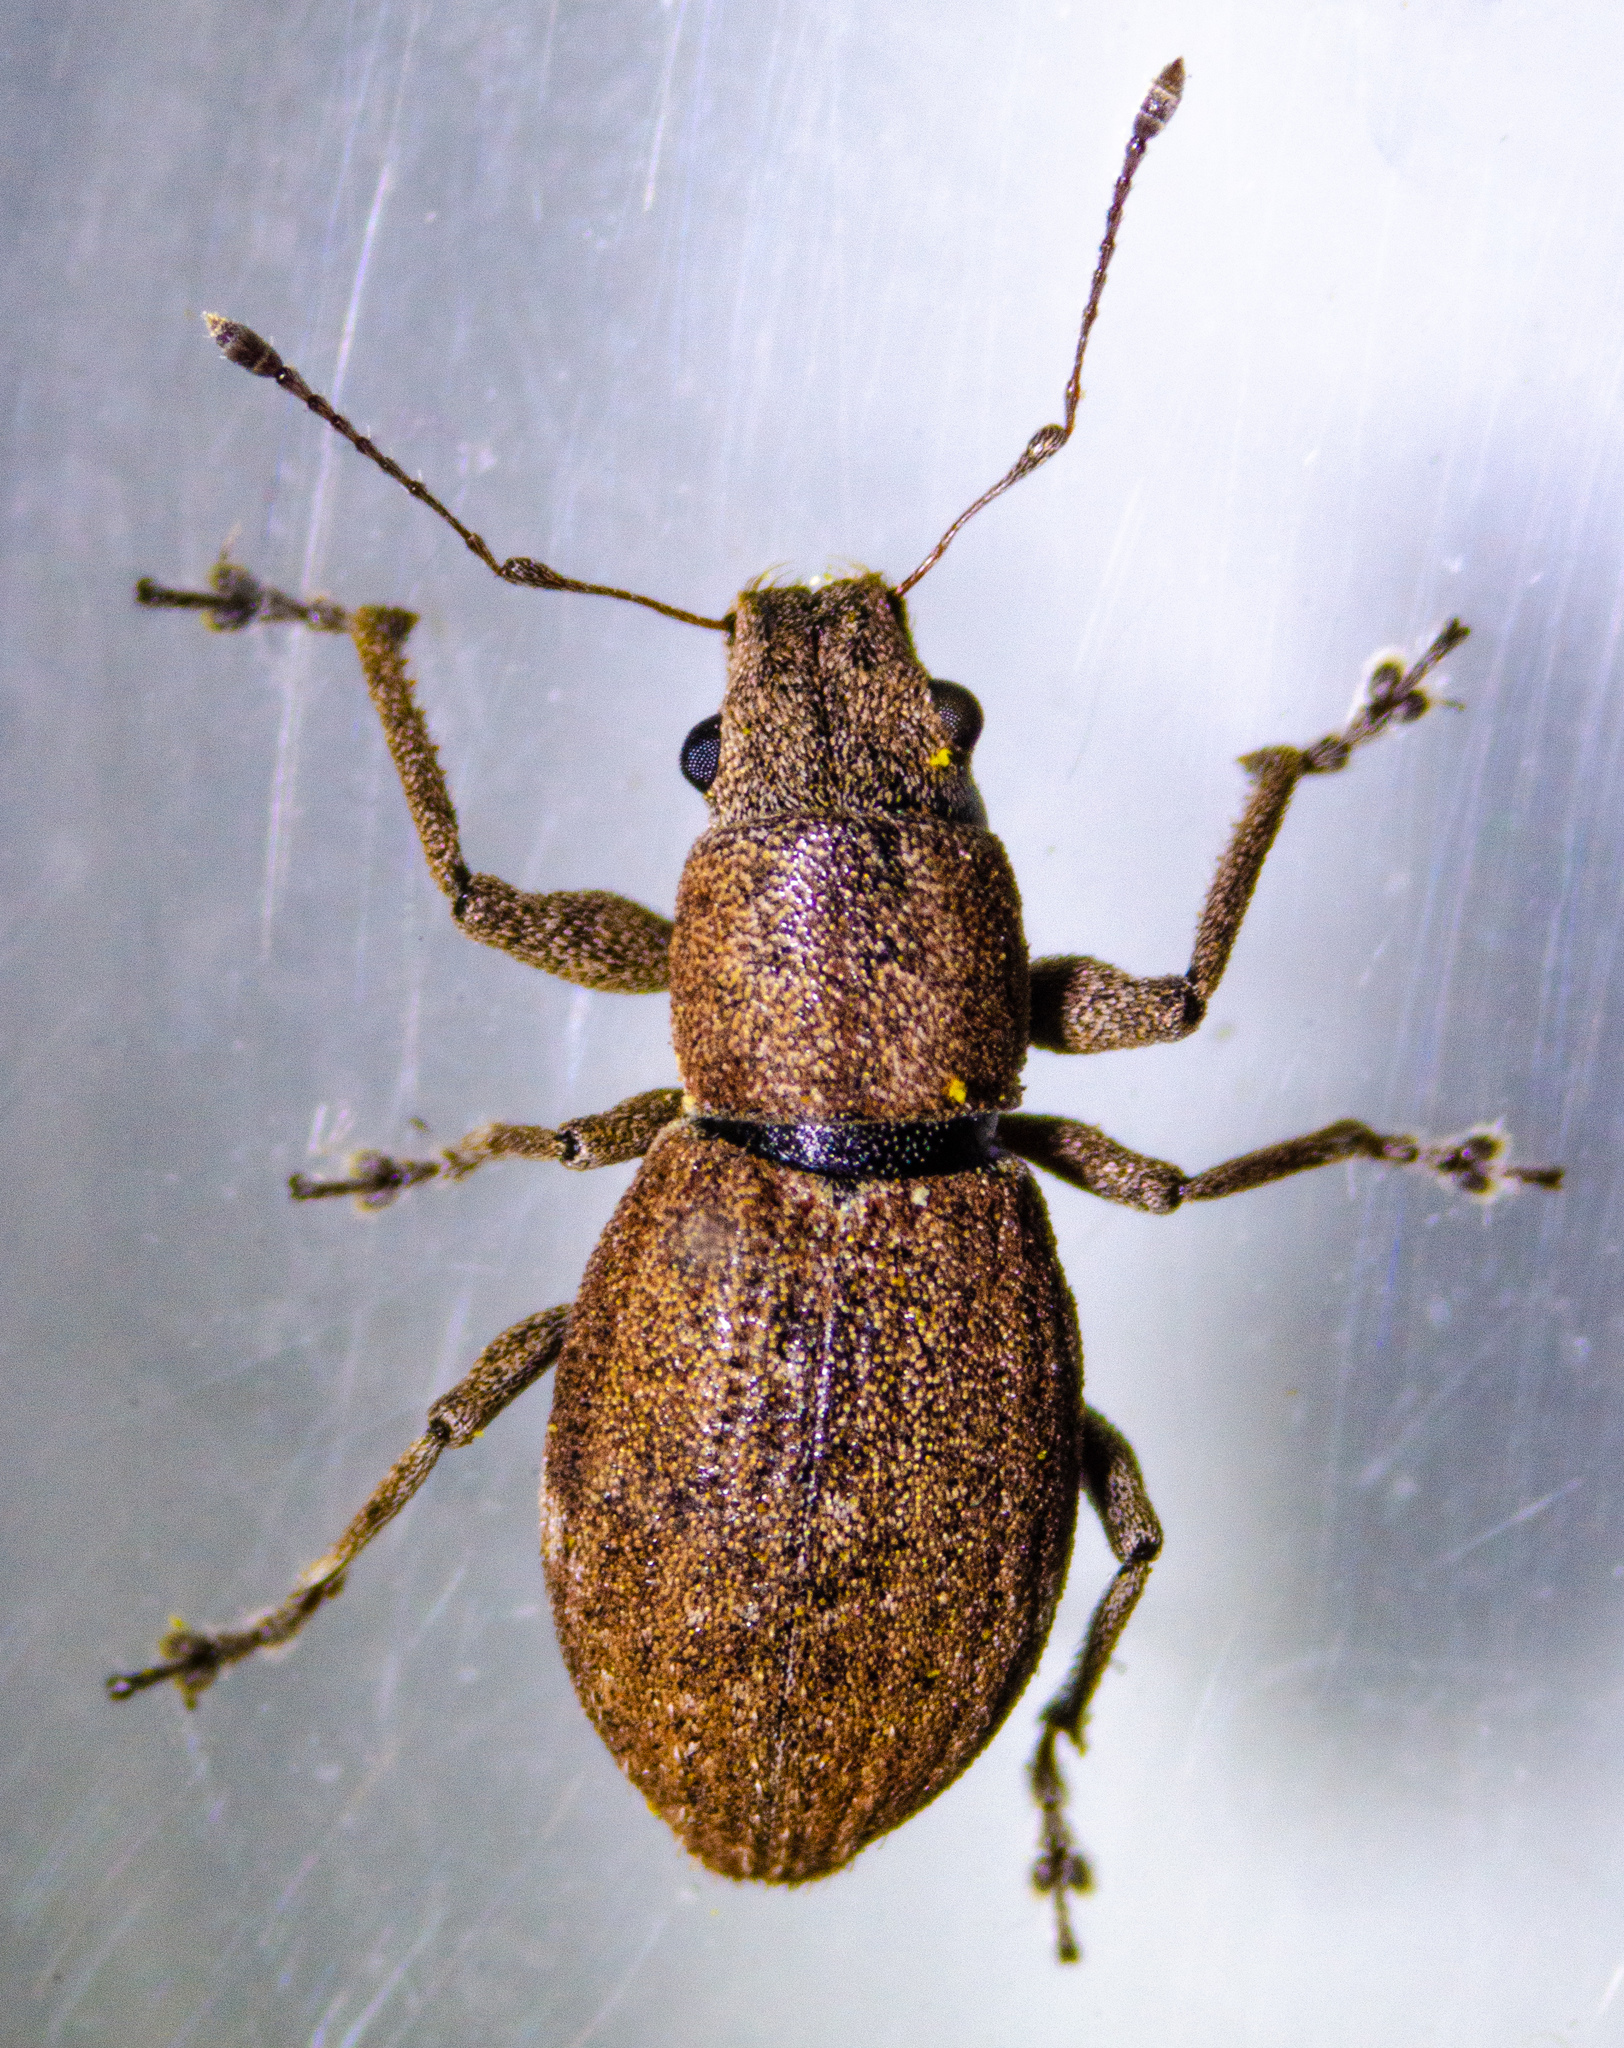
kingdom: Animalia
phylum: Arthropoda
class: Insecta
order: Coleoptera
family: Curculionidae
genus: Naupactus
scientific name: Naupactus cervinus
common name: Fuller rose beetle
